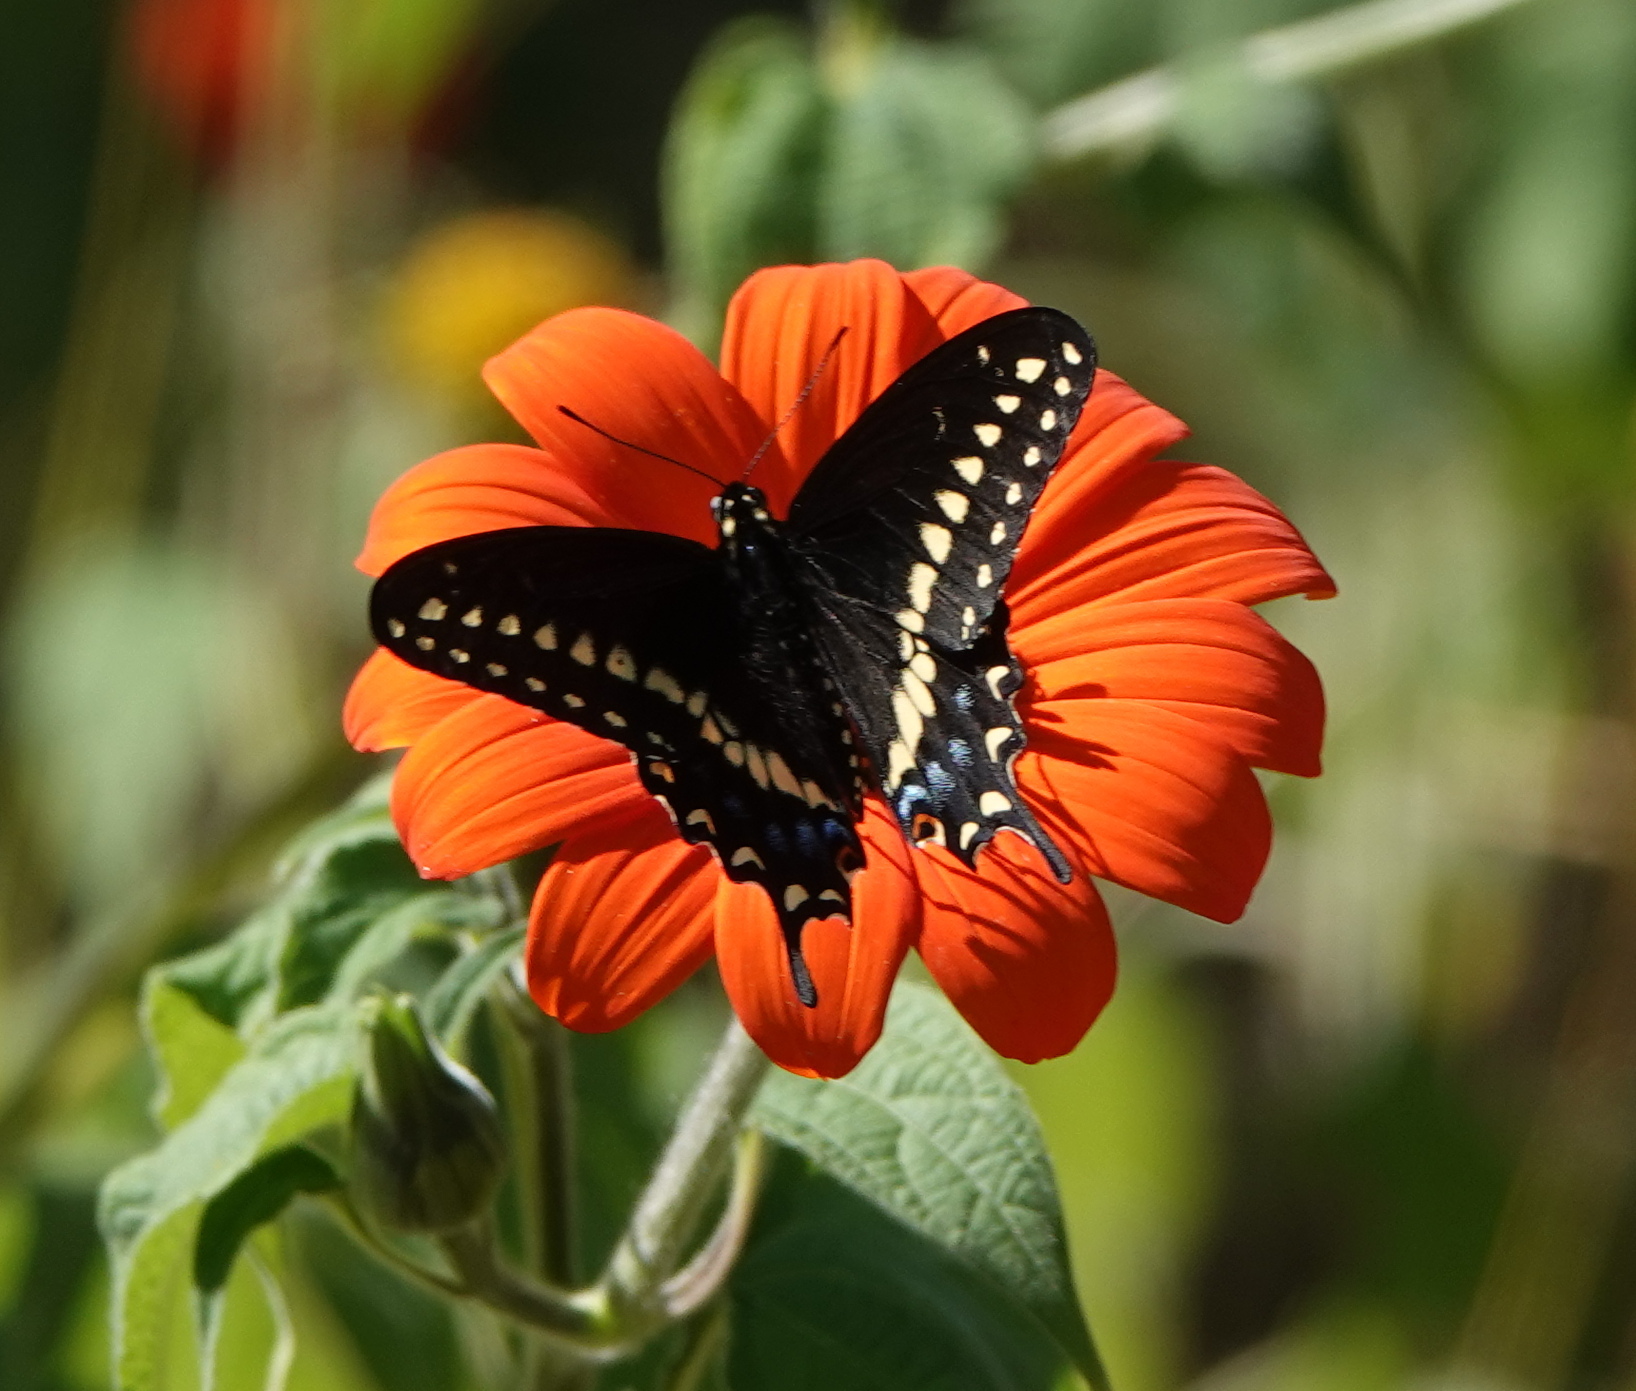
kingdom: Animalia
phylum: Arthropoda
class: Insecta
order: Lepidoptera
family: Papilionidae
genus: Papilio
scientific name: Papilio polyxenes
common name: Black swallowtail
